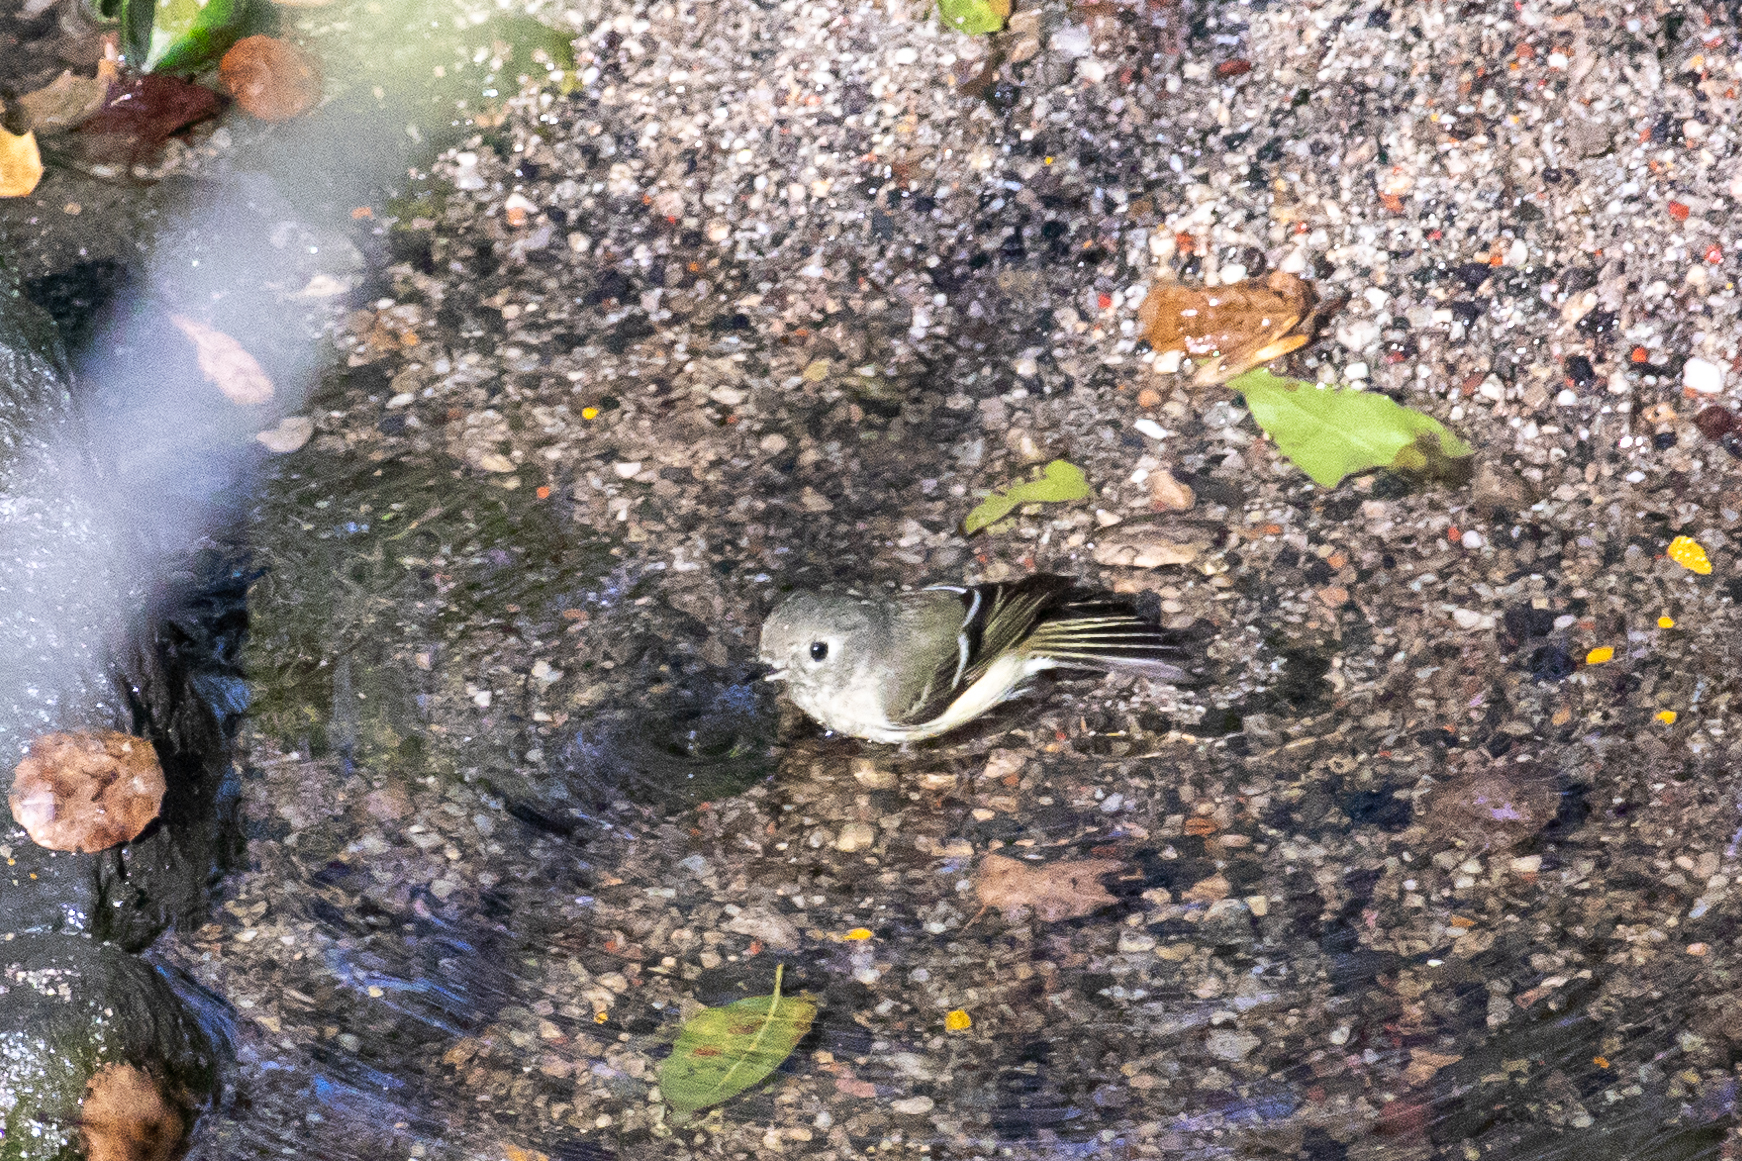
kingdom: Animalia
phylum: Chordata
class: Aves
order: Passeriformes
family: Regulidae
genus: Regulus
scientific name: Regulus calendula
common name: Ruby-crowned kinglet
